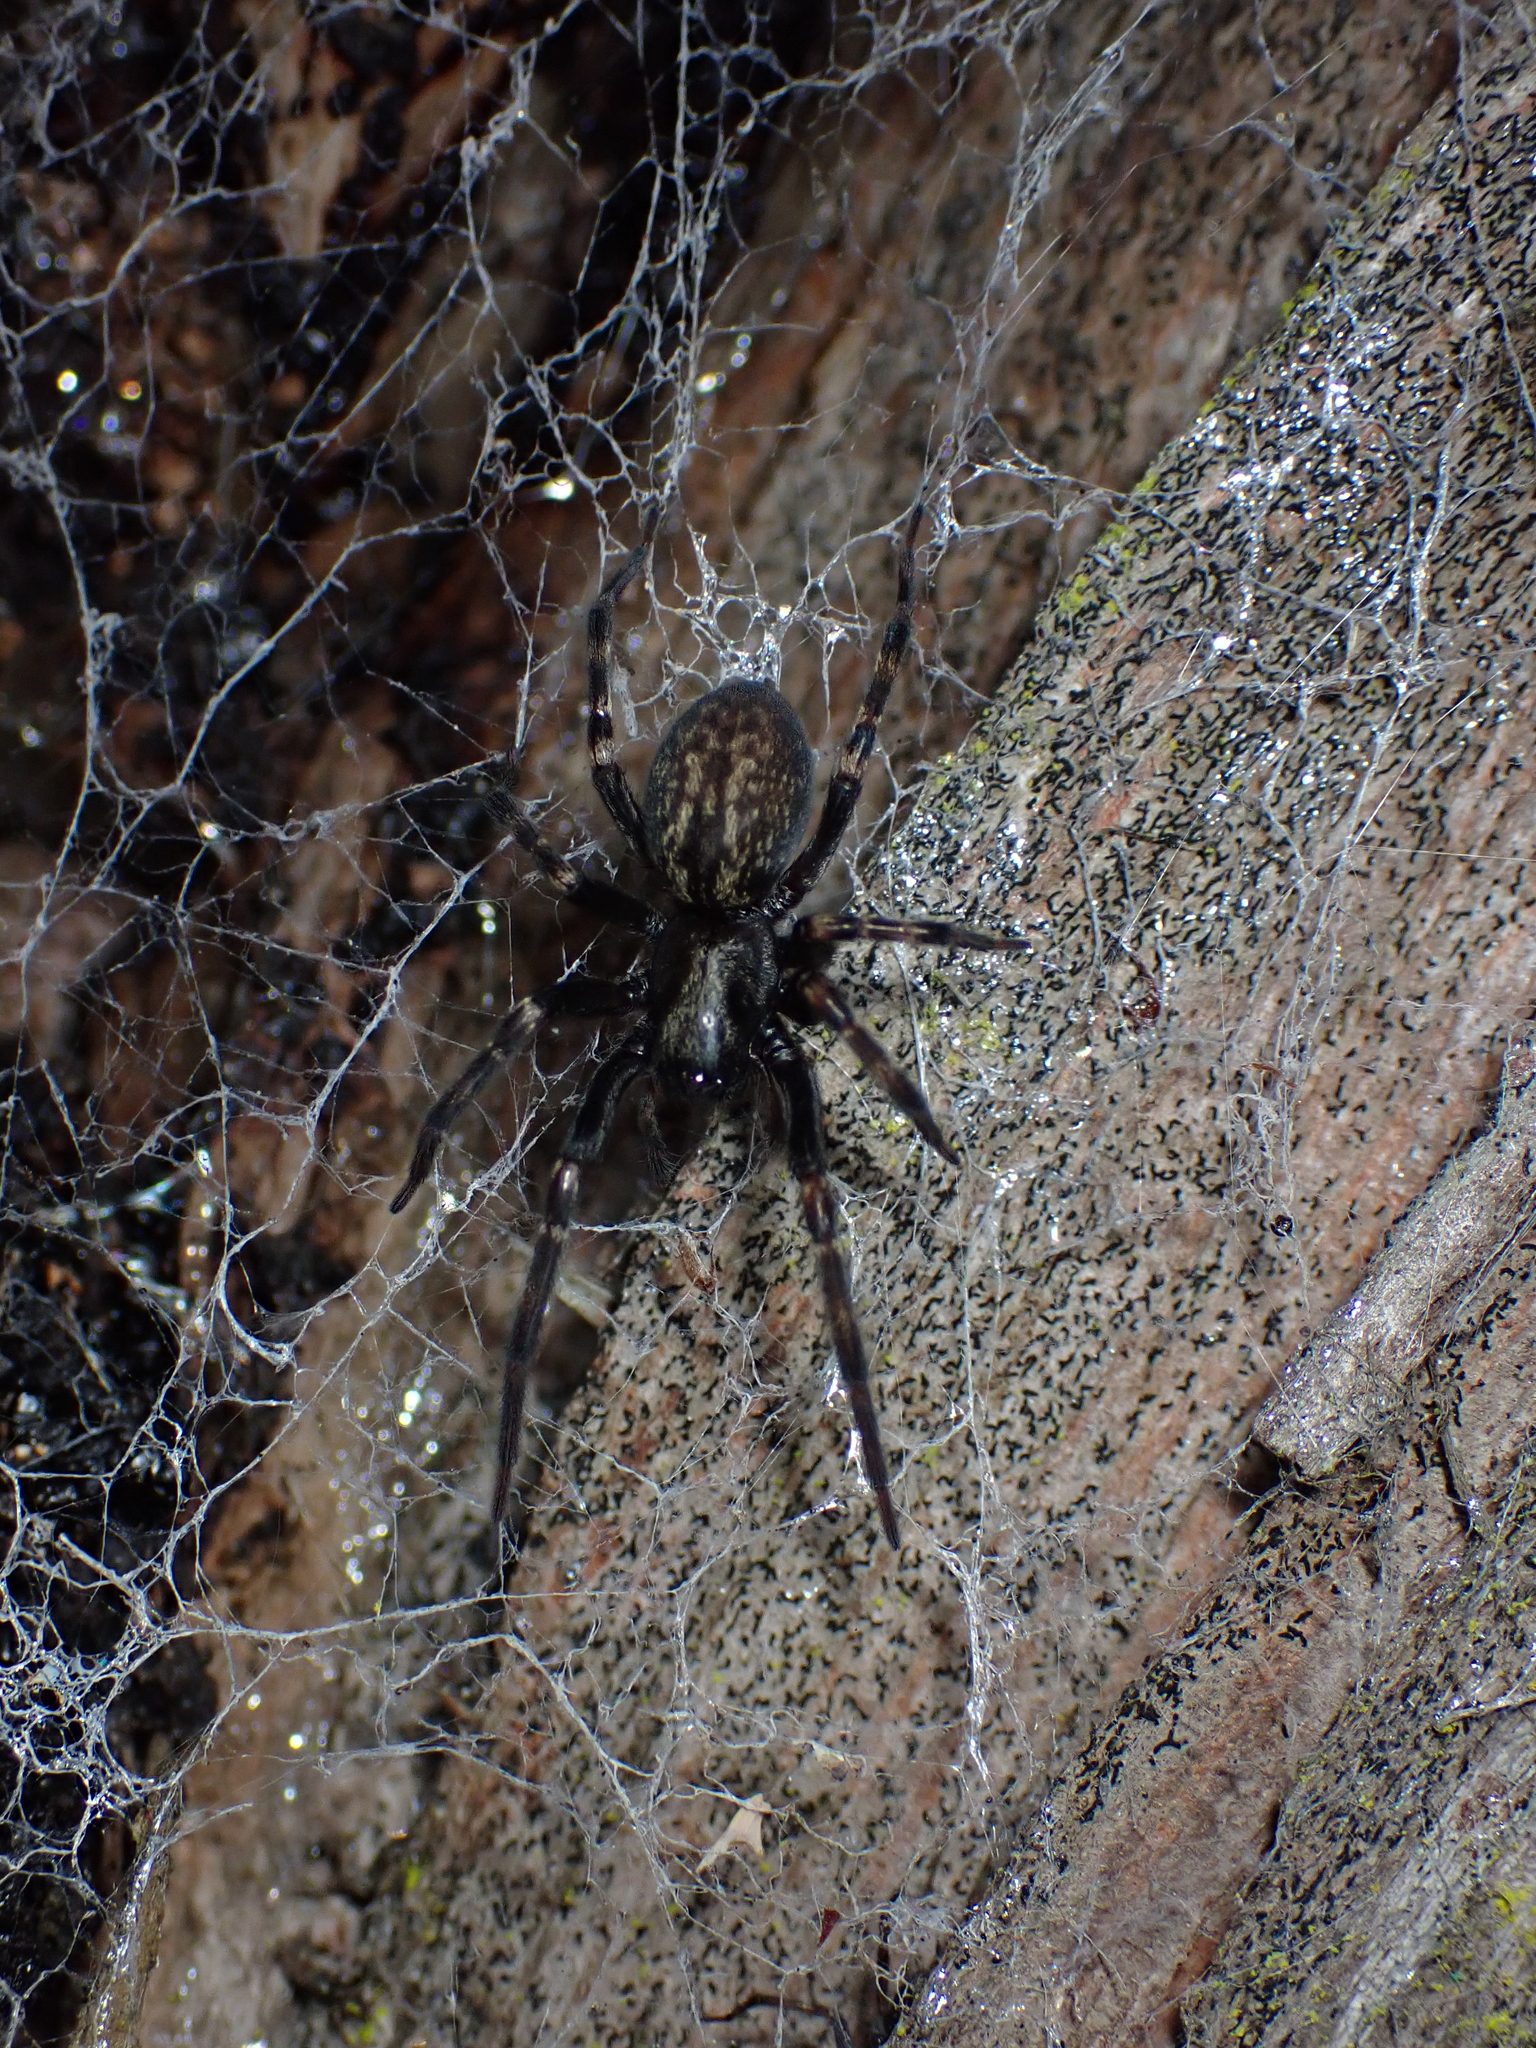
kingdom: Animalia
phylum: Arthropoda
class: Arachnida
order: Araneae
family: Desidae
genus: Badumna
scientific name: Badumna insignis
